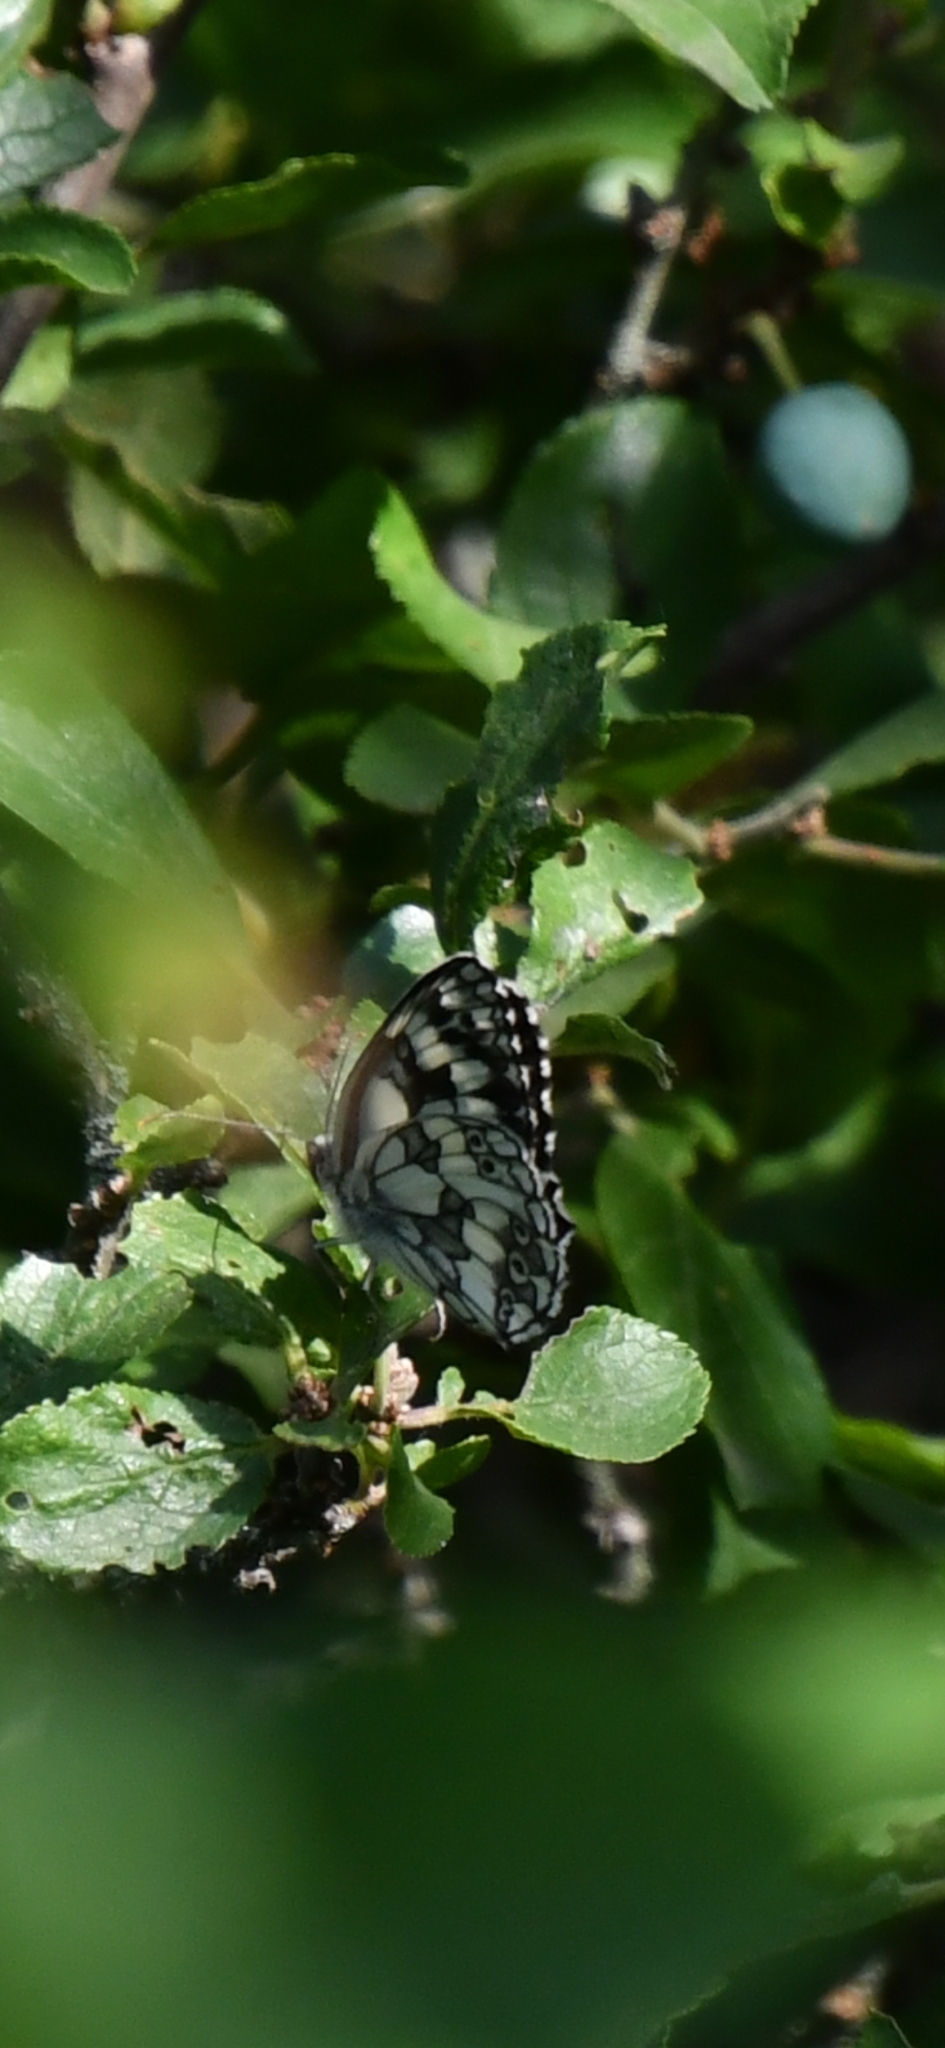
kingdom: Animalia
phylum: Arthropoda
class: Insecta
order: Lepidoptera
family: Nymphalidae
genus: Melanargia
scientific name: Melanargia galathea
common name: Marbled white
